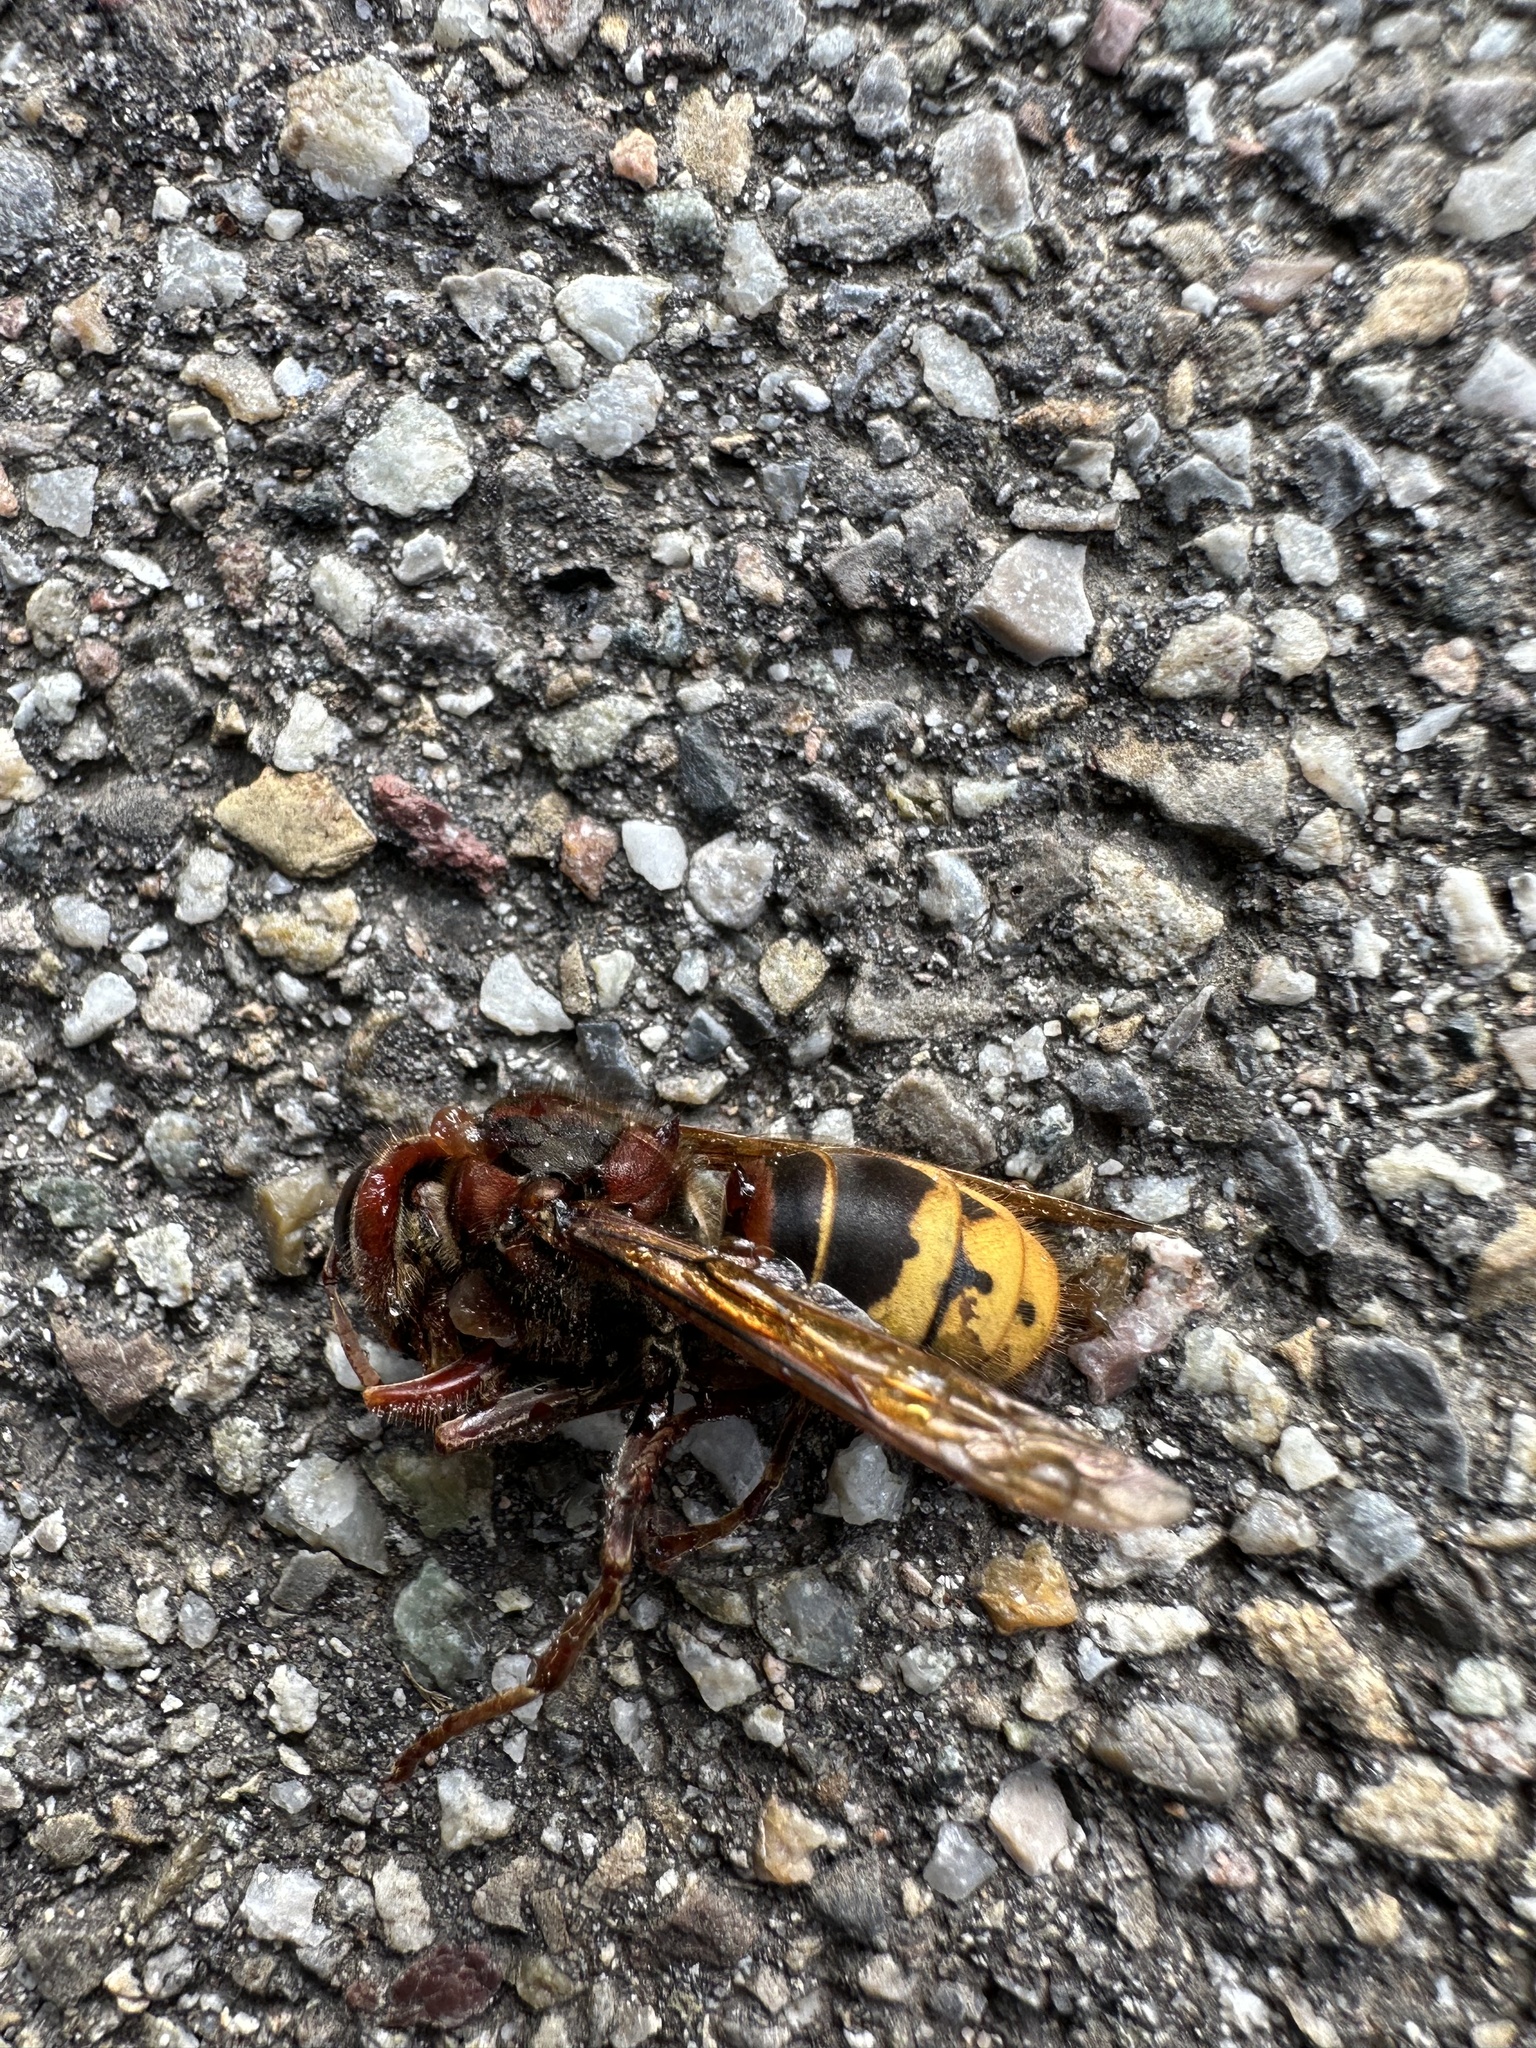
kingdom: Animalia
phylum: Arthropoda
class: Insecta
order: Hymenoptera
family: Vespidae
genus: Vespa
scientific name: Vespa crabro
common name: Hornet
